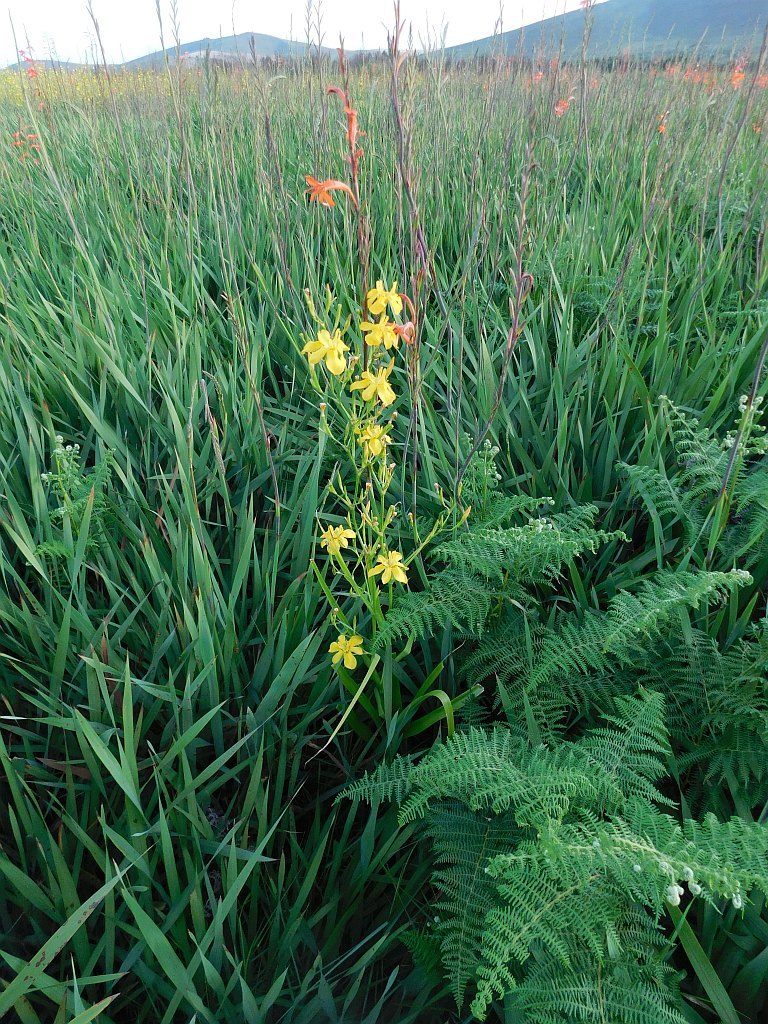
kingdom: Plantae
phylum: Tracheophyta
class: Liliopsida
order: Asparagales
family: Iridaceae
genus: Moraea
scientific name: Moraea ramosissima
